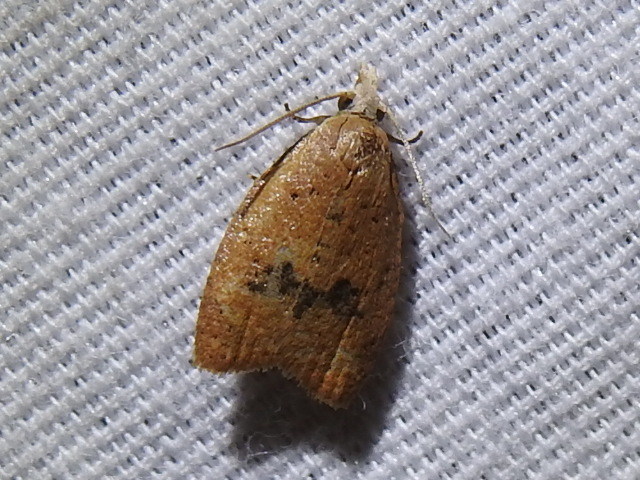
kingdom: Animalia
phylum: Arthropoda
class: Insecta
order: Lepidoptera
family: Tortricidae
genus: Sparganothoides
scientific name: Sparganothoides lentiginosana
